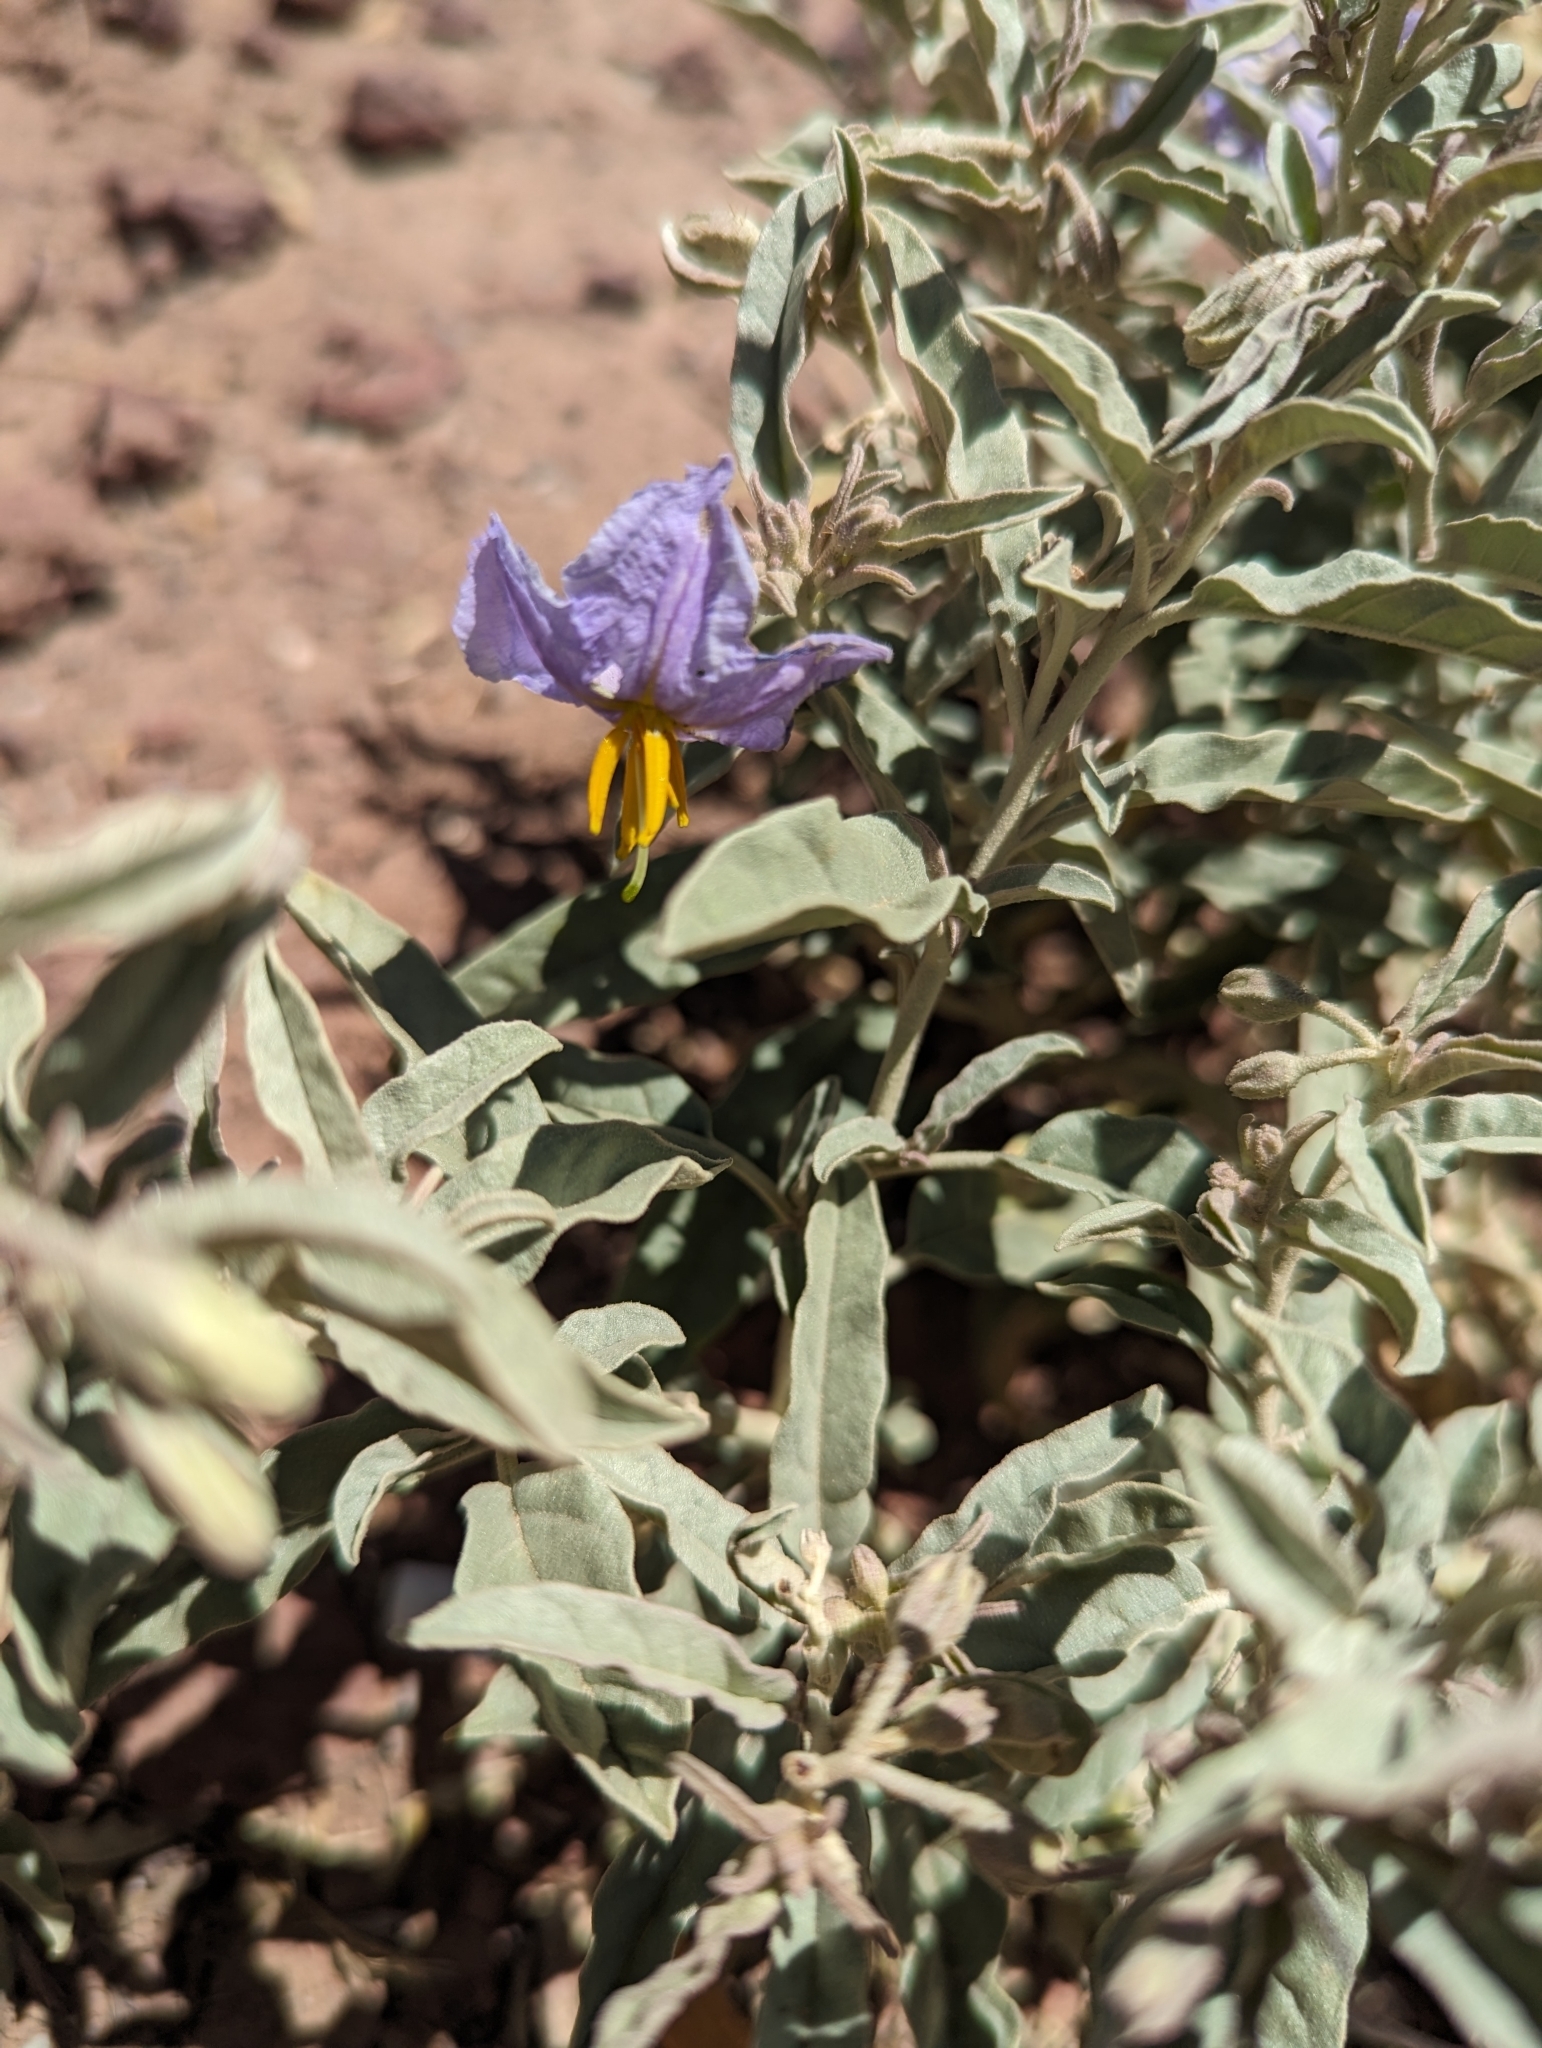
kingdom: Plantae
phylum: Tracheophyta
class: Magnoliopsida
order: Solanales
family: Solanaceae
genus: Solanum
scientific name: Solanum elaeagnifolium
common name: Silverleaf nightshade
